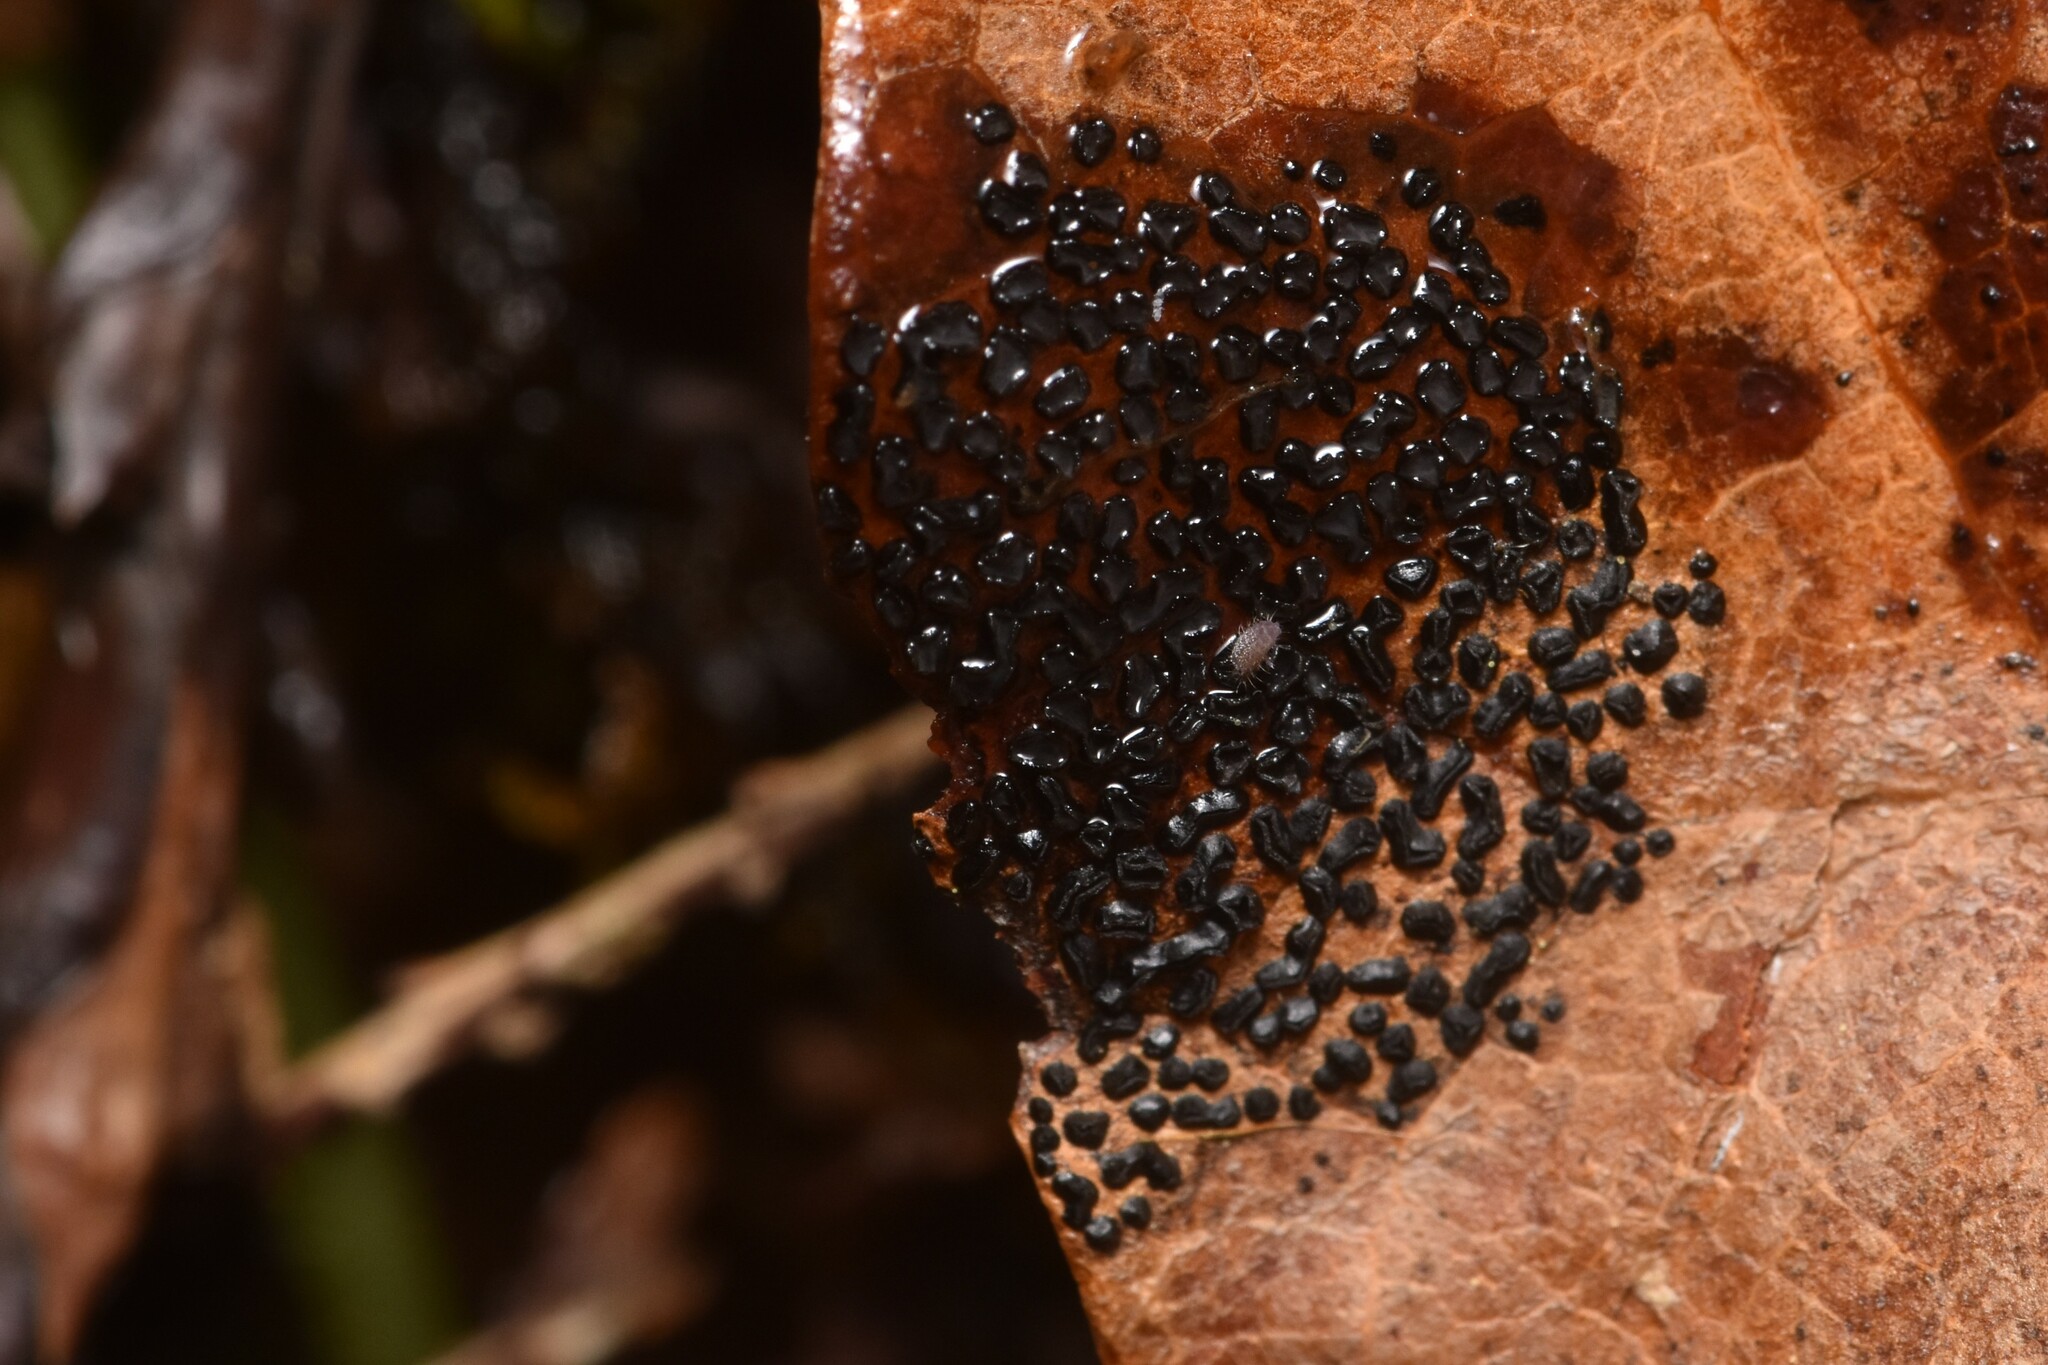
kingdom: Fungi
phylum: Ascomycota
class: Leotiomycetes
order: Rhytismatales
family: Rhytismataceae
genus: Rhytisma
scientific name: Rhytisma punctatum
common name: Speckled tar spot
